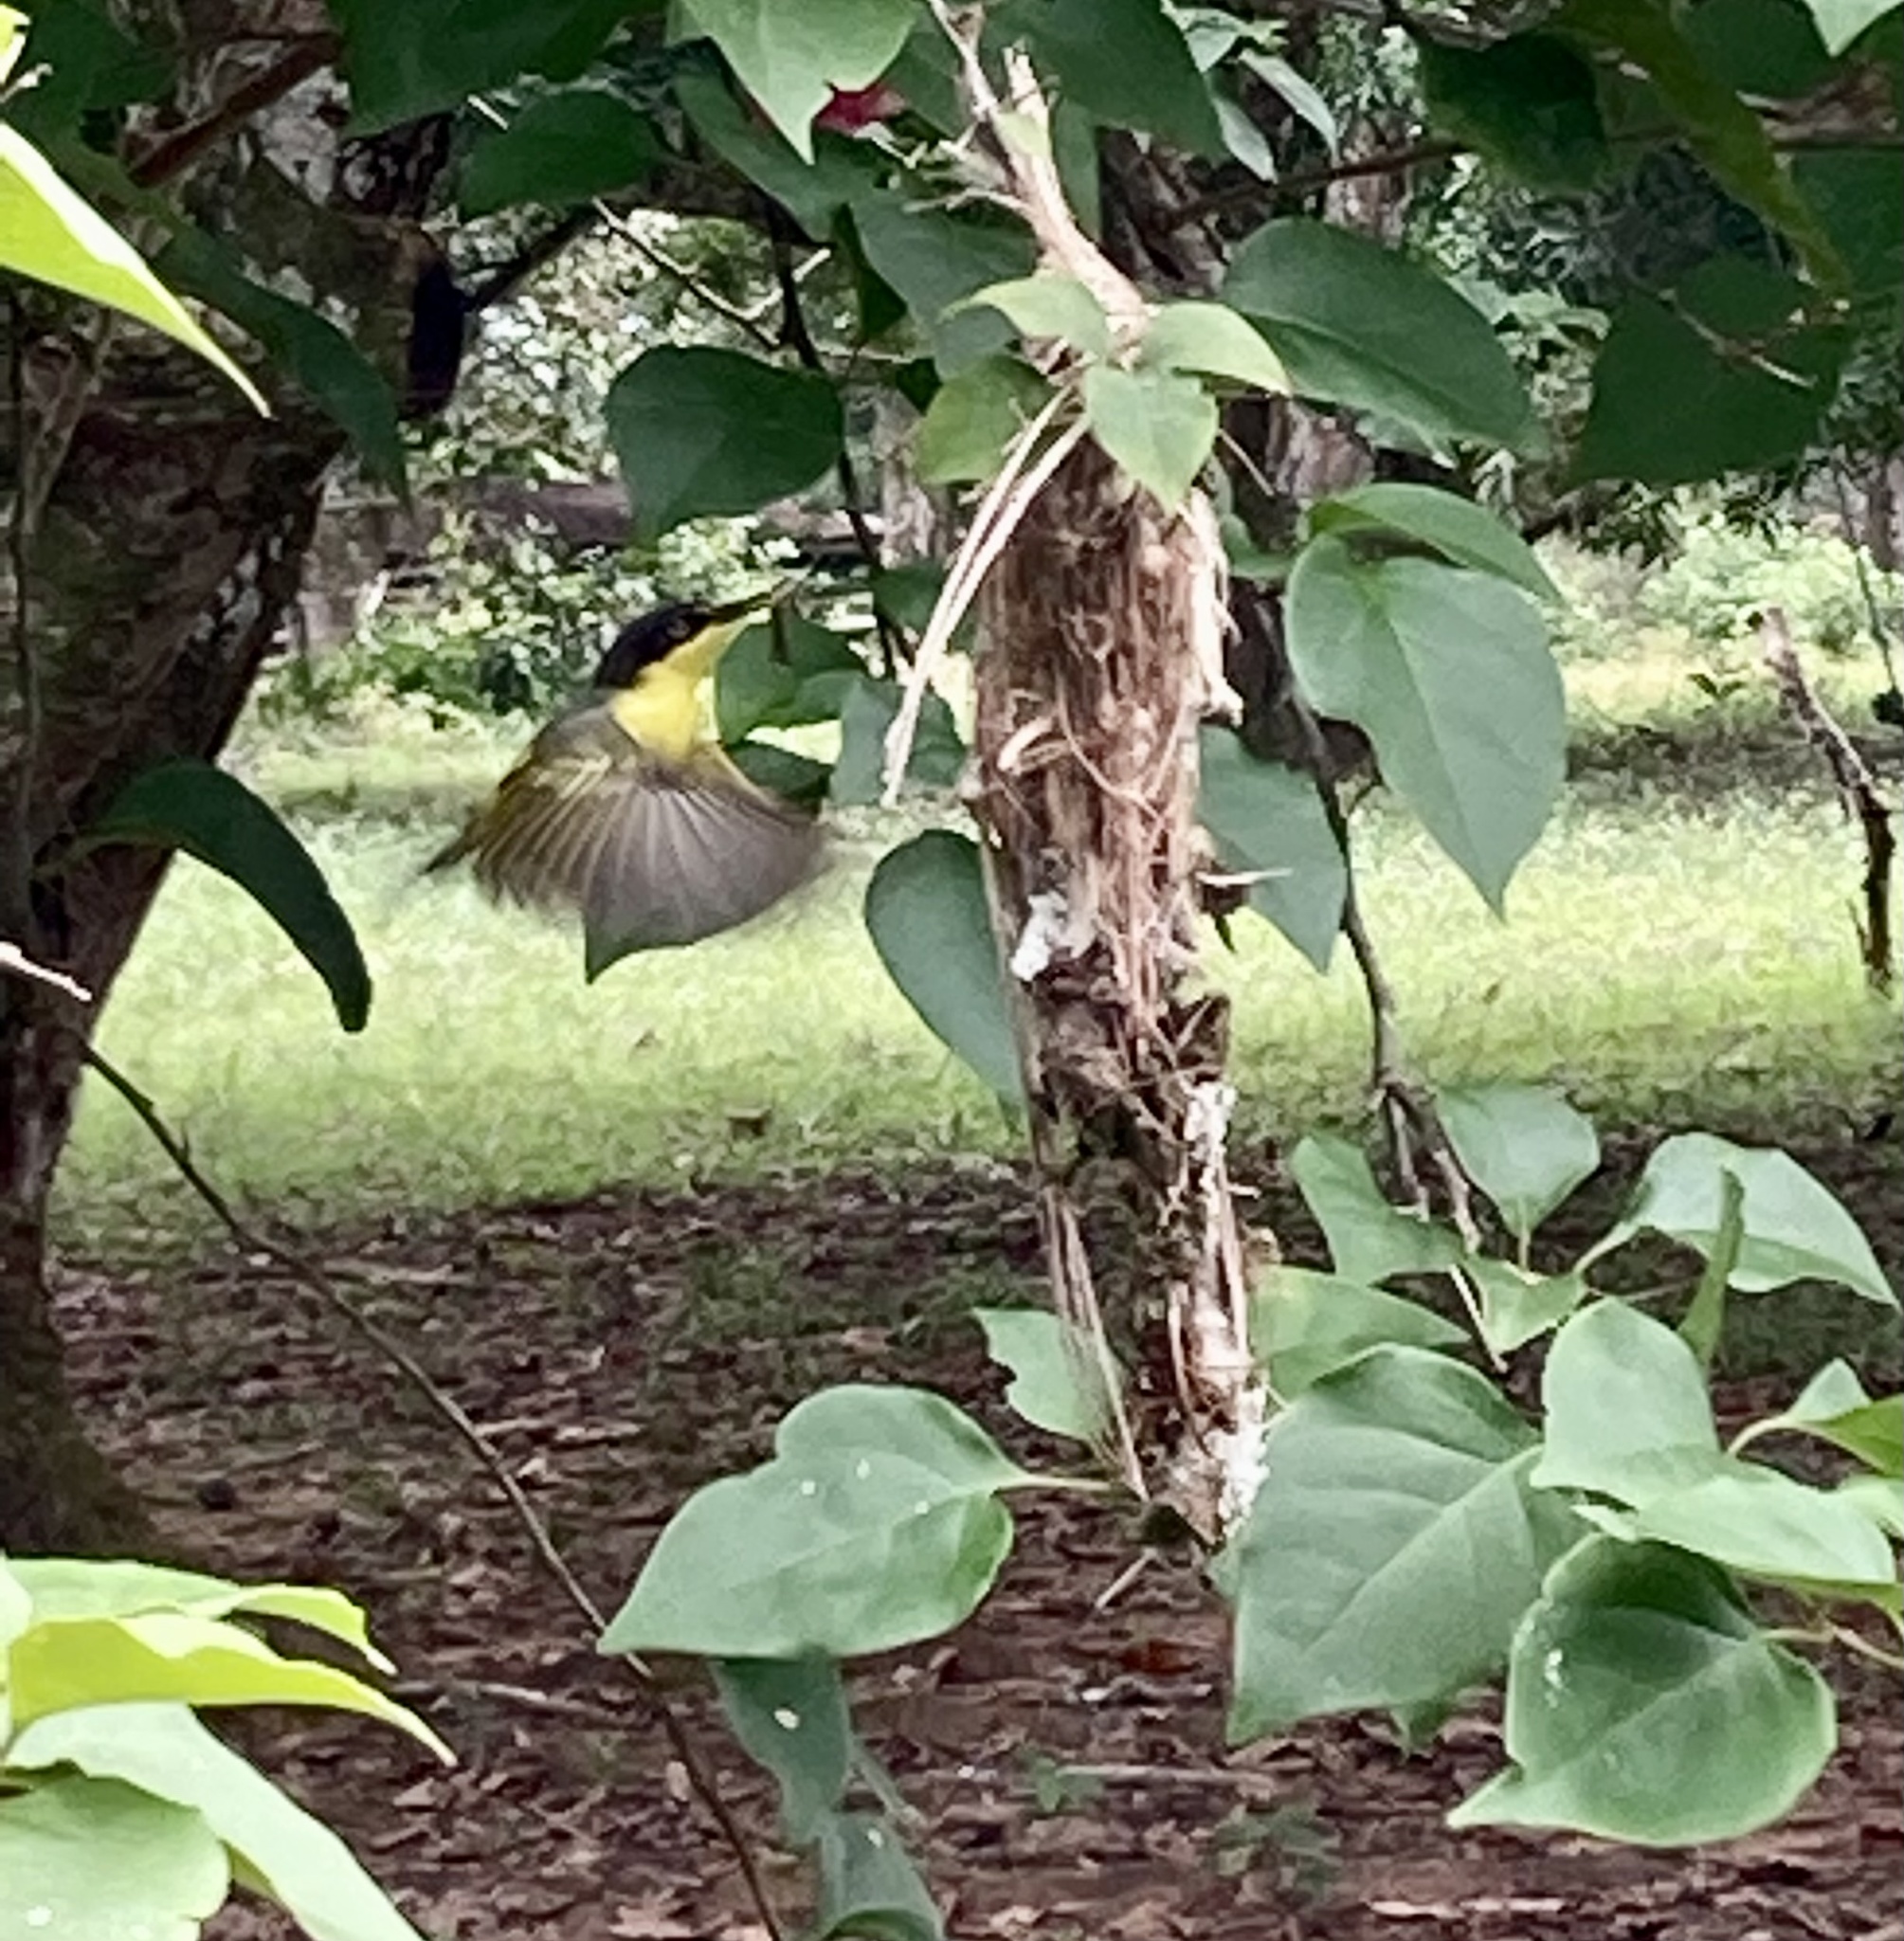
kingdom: Animalia
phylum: Chordata
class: Aves
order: Passeriformes
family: Tyrannidae
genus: Todirostrum
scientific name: Todirostrum cinereum
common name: Common tody-flycatcher
